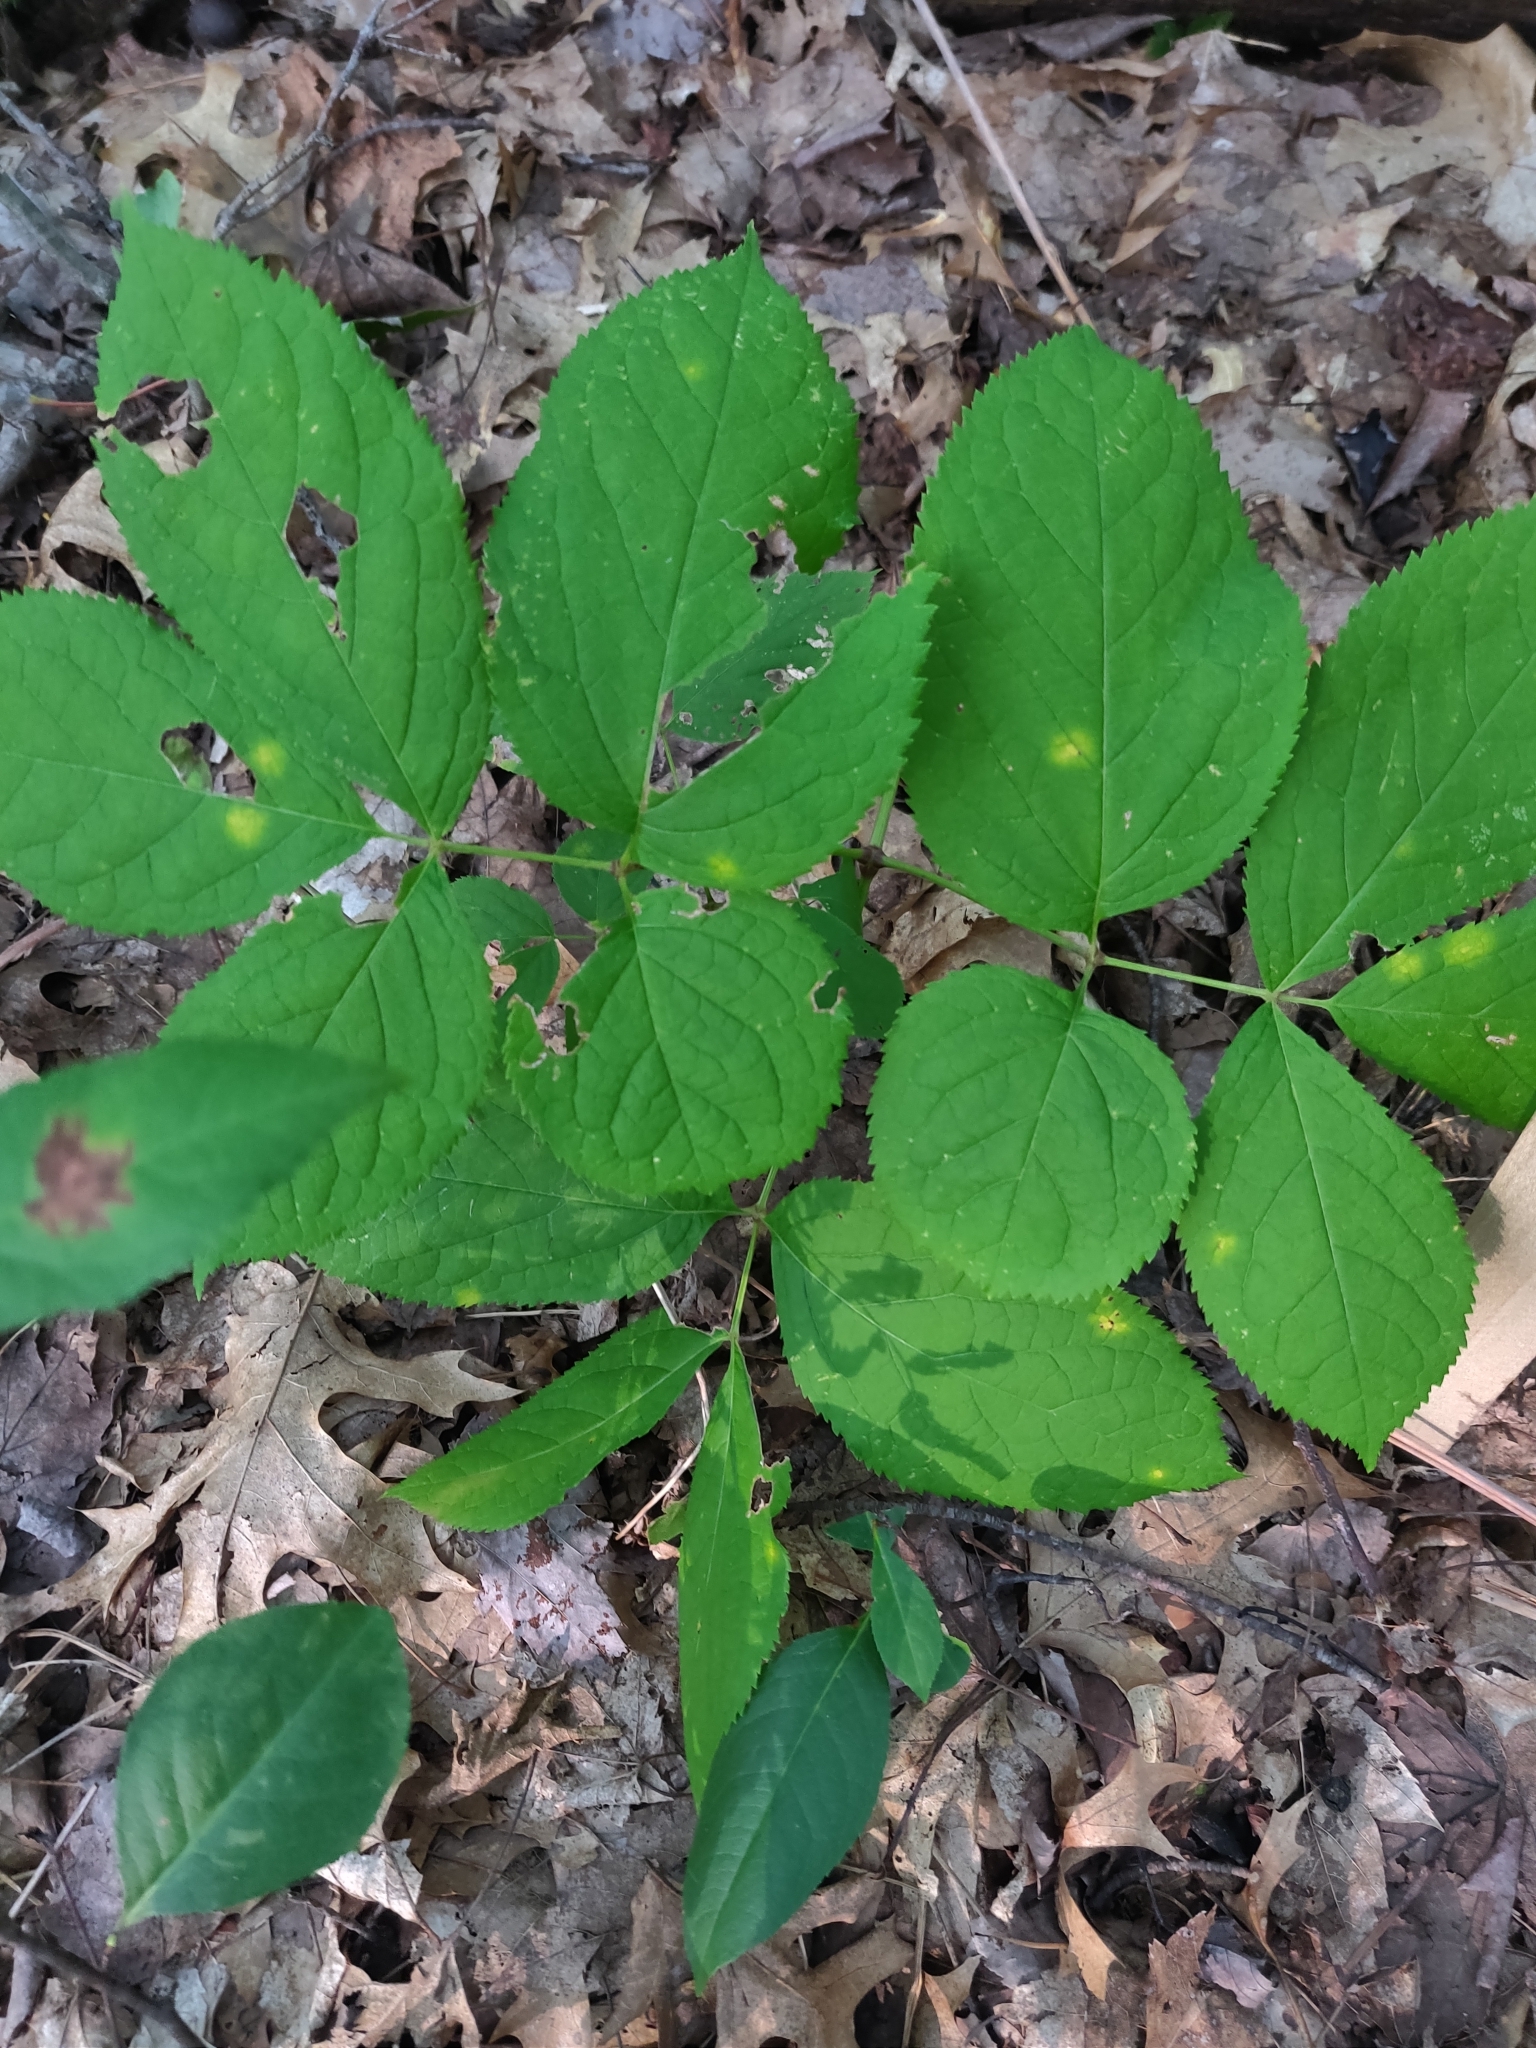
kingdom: Plantae
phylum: Tracheophyta
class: Magnoliopsida
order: Apiales
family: Araliaceae
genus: Aralia
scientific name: Aralia nudicaulis
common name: Wild sarsaparilla
